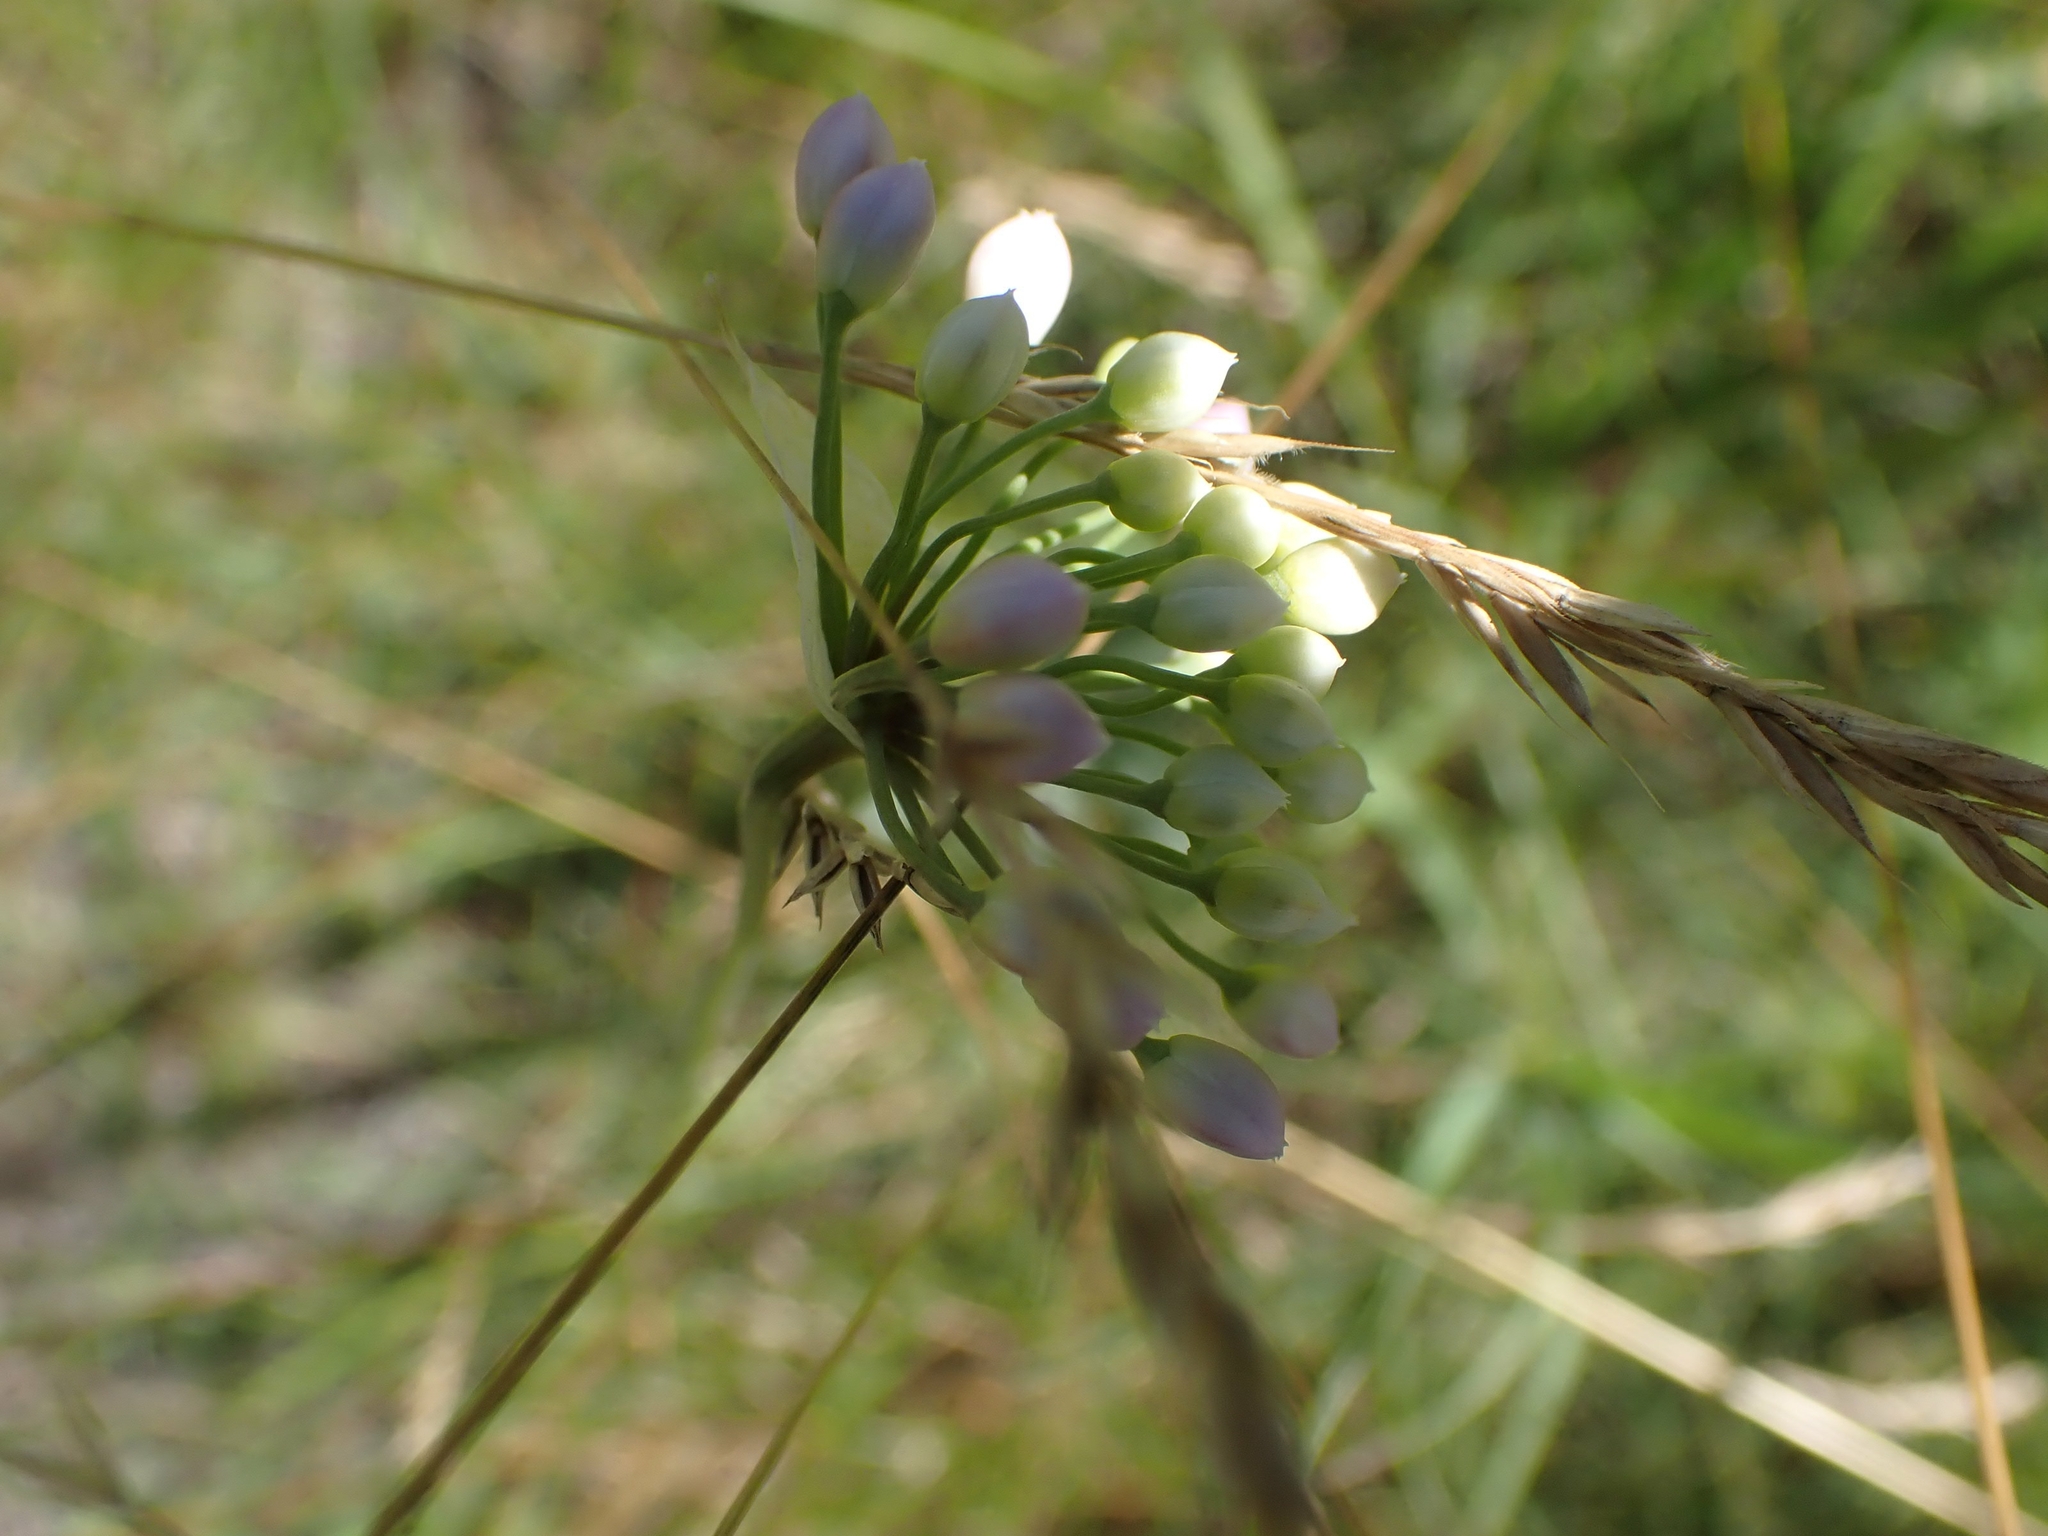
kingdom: Plantae
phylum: Tracheophyta
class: Liliopsida
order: Asparagales
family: Amaryllidaceae
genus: Allium
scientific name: Allium stellatum
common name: Autumn onion
